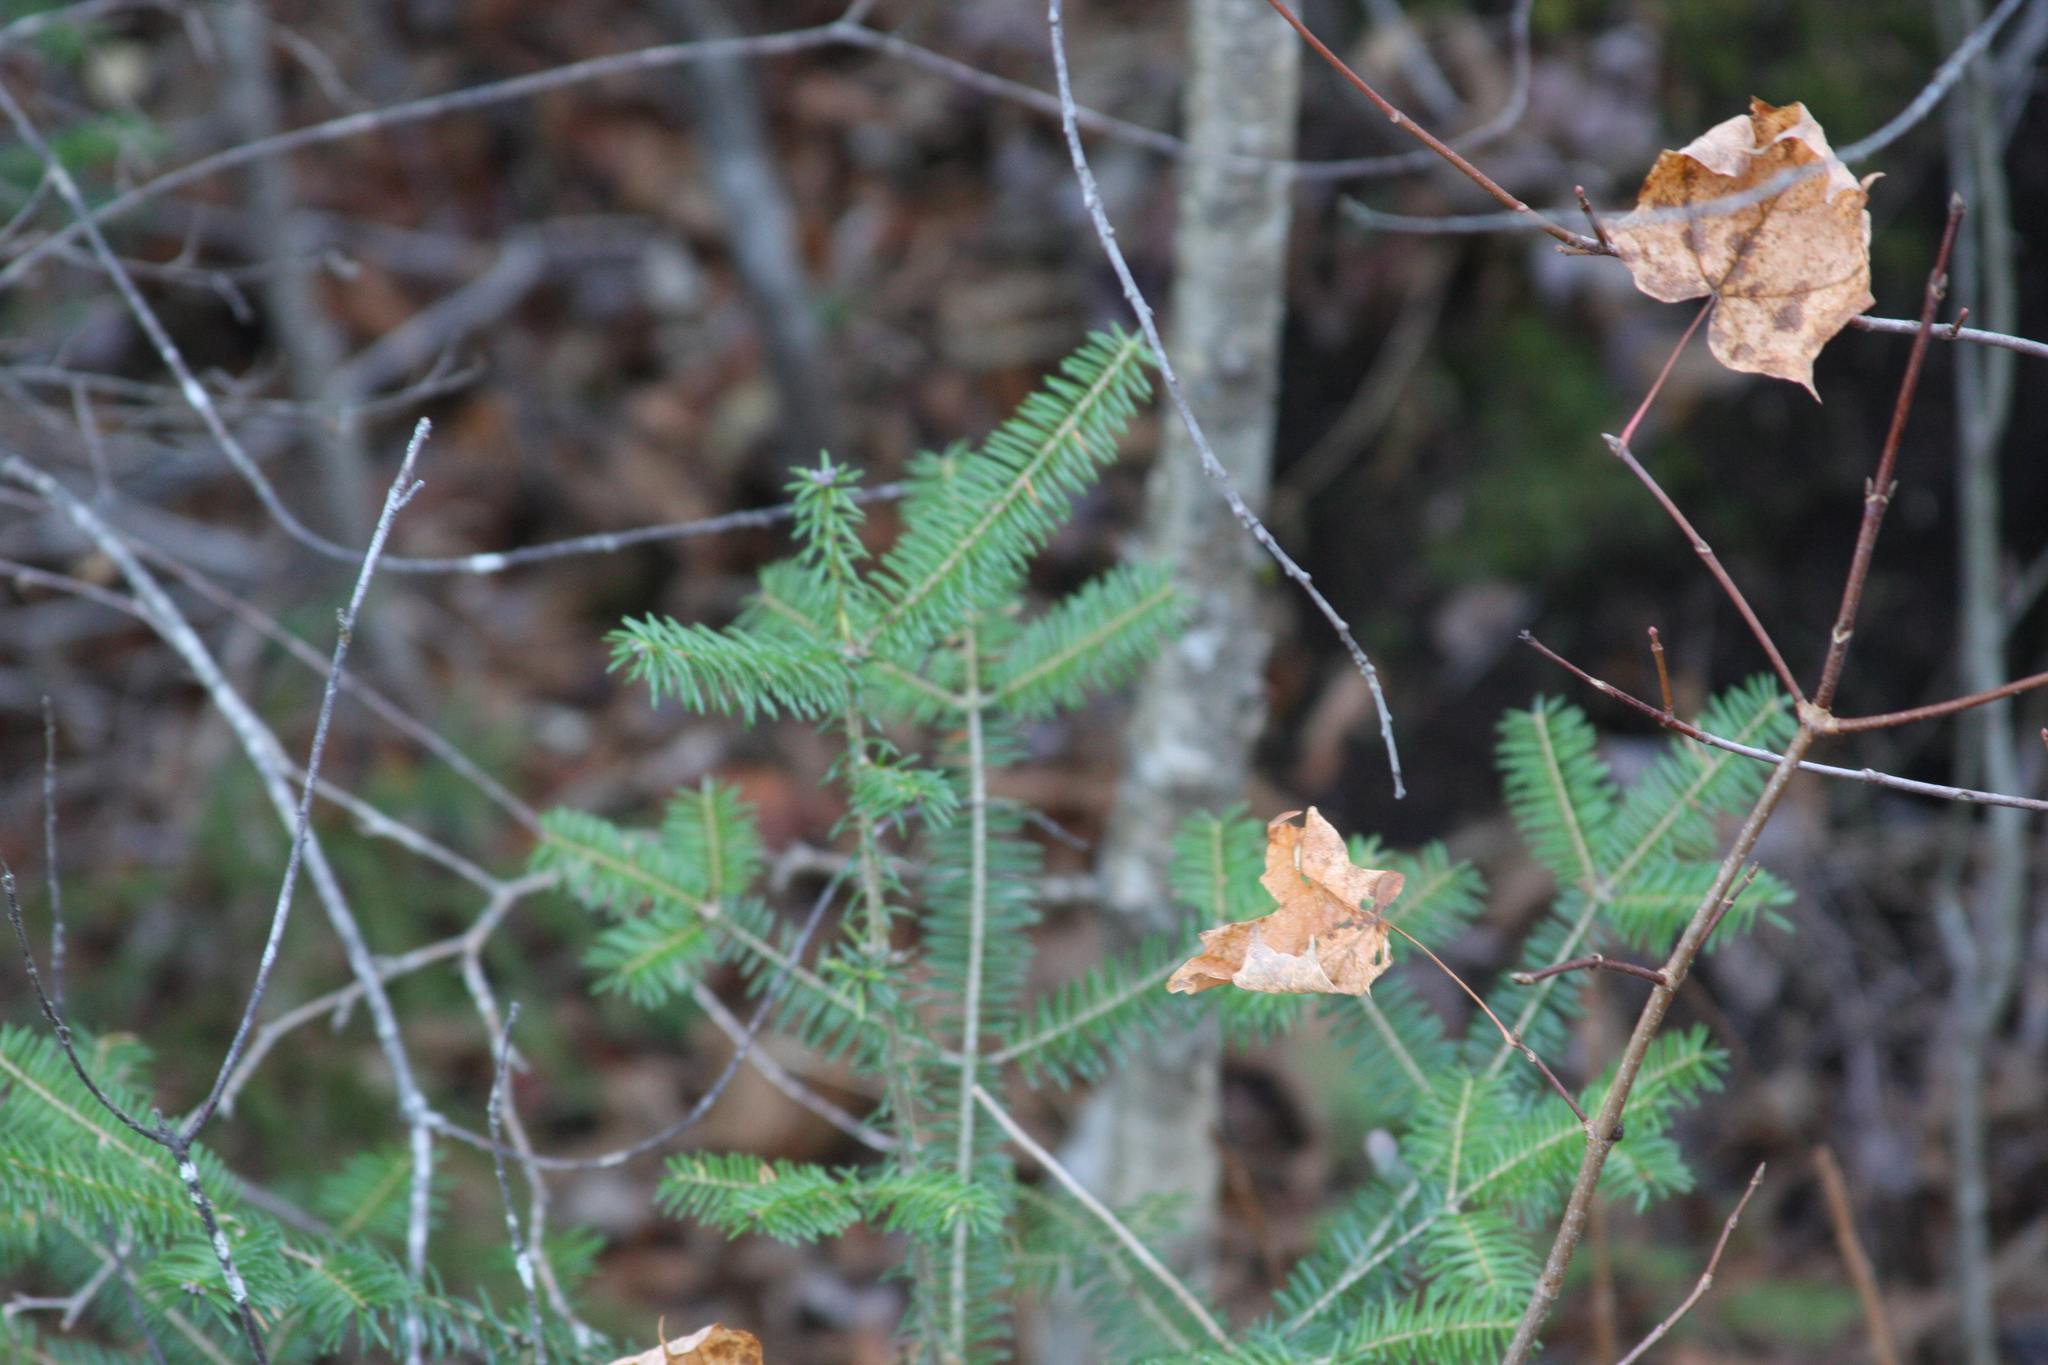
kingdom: Plantae
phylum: Tracheophyta
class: Pinopsida
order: Pinales
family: Pinaceae
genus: Abies
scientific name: Abies balsamea
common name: Balsam fir
